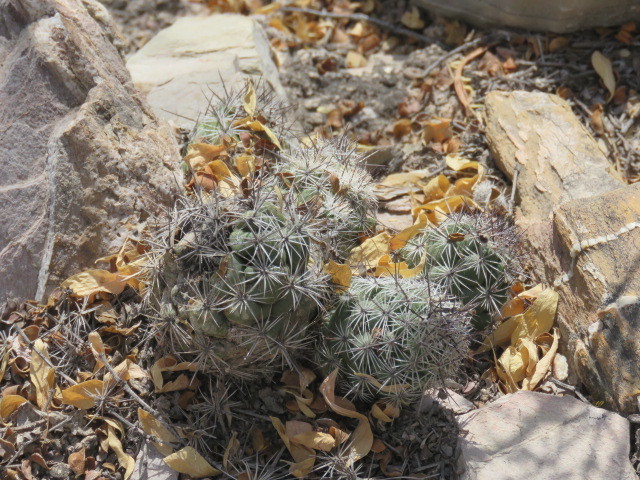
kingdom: Plantae
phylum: Tracheophyta
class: Magnoliopsida
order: Caryophyllales
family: Cactaceae
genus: Cochemiea
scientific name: Cochemiea conoidea
